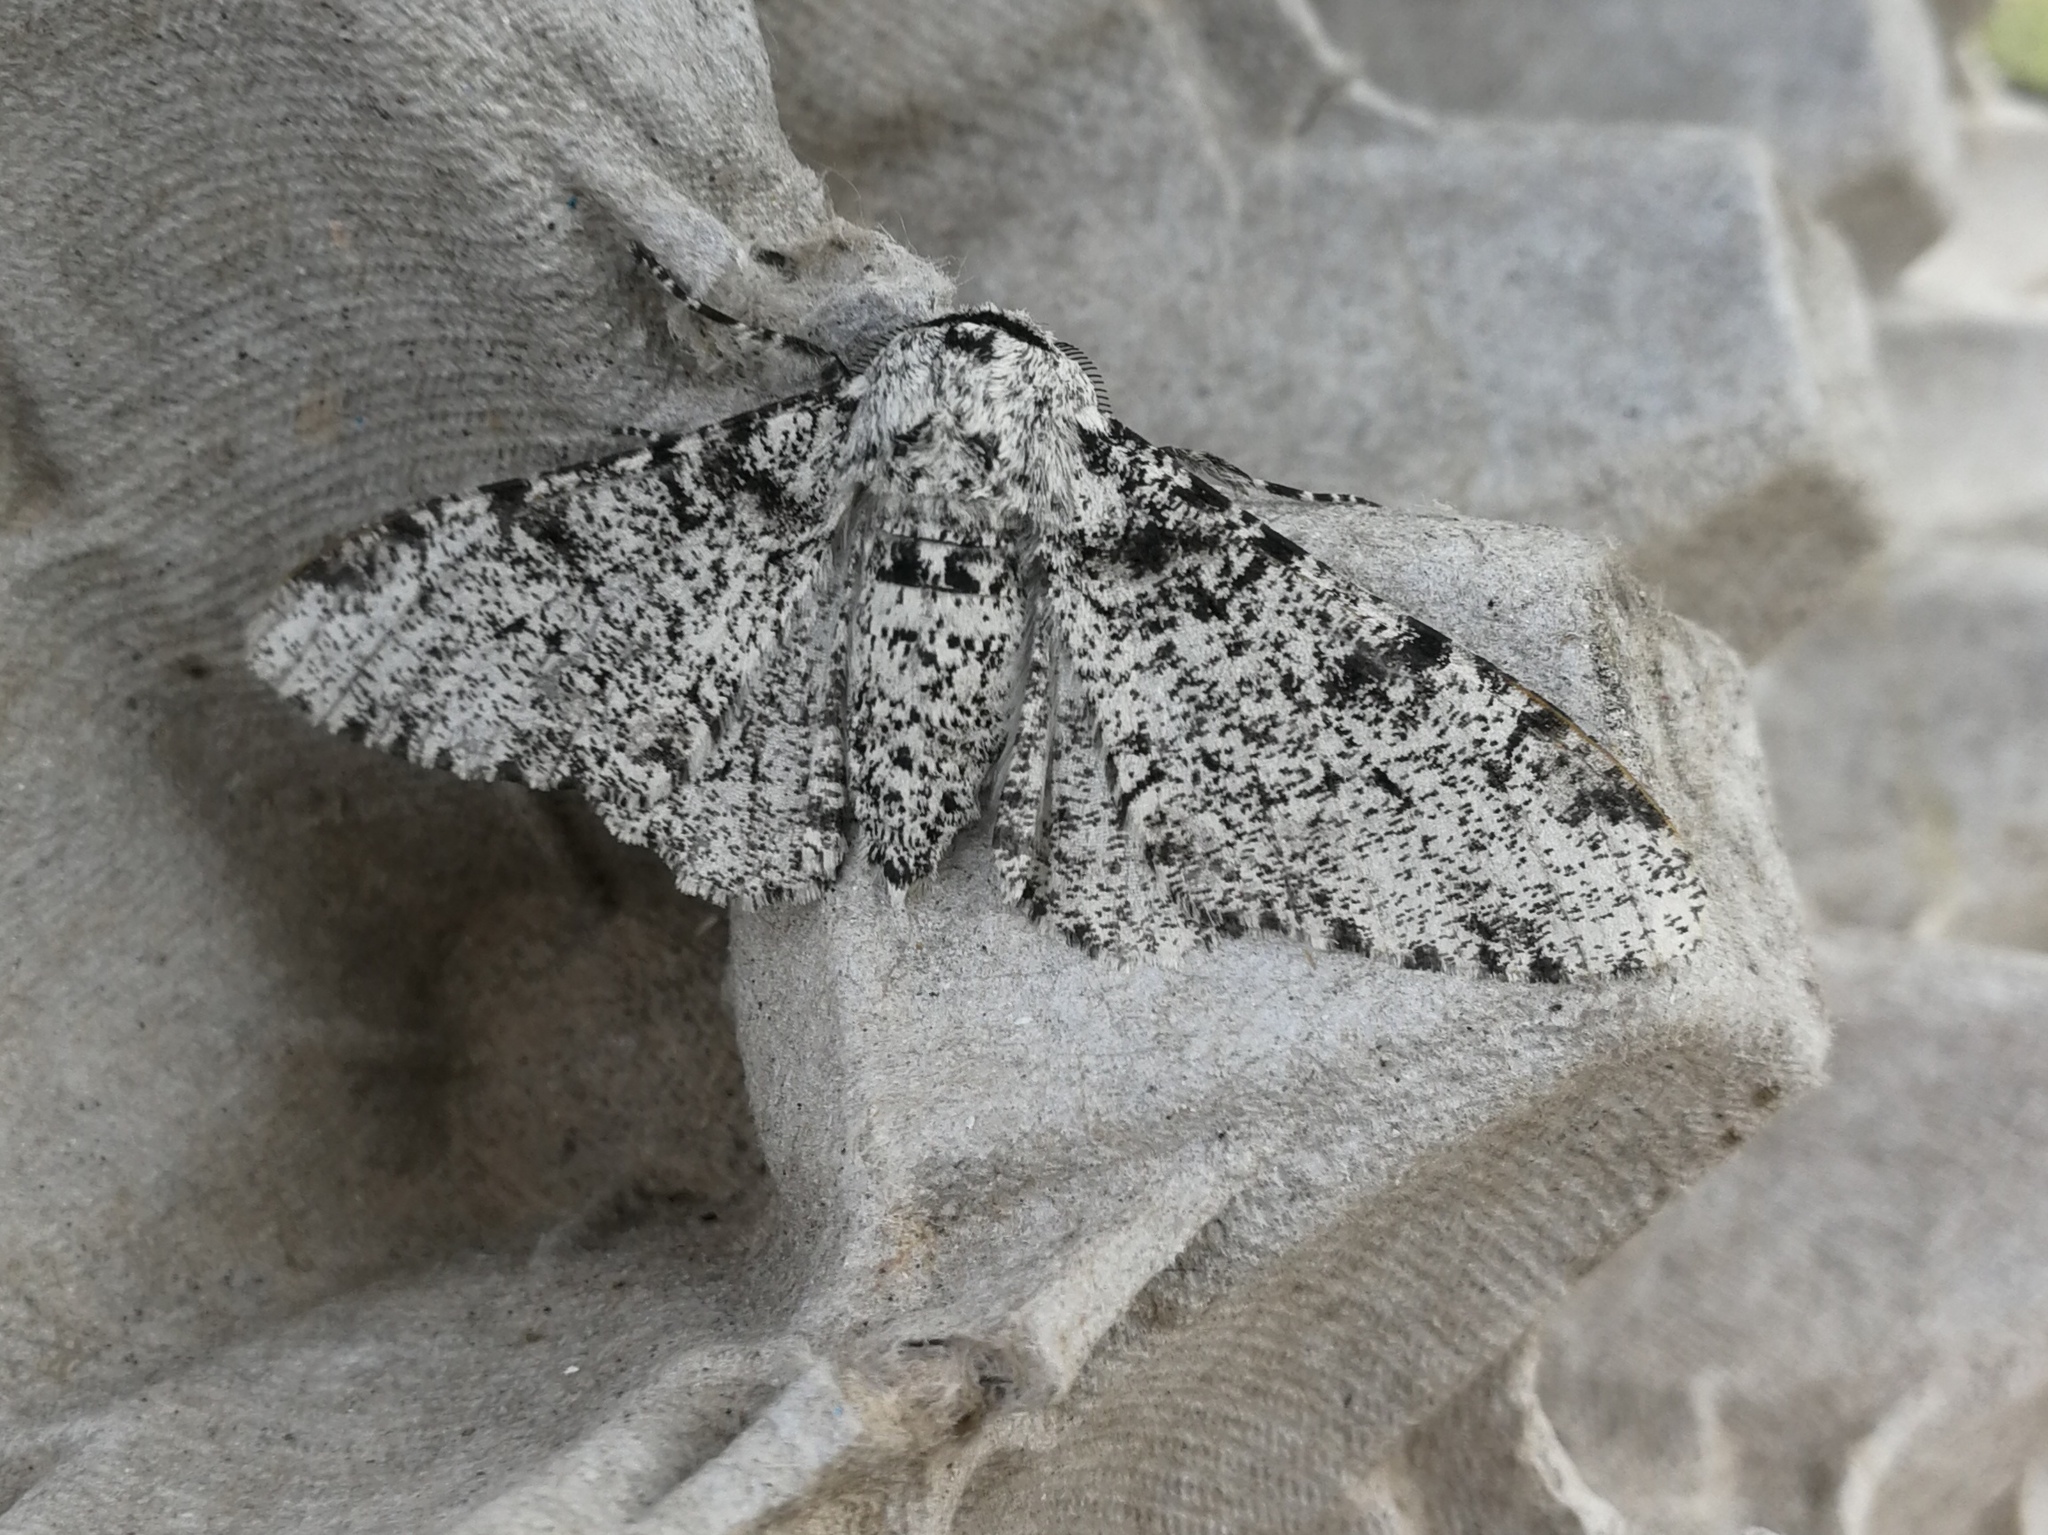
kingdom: Animalia
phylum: Arthropoda
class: Insecta
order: Lepidoptera
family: Geometridae
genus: Biston
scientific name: Biston betularia
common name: Peppered moth
